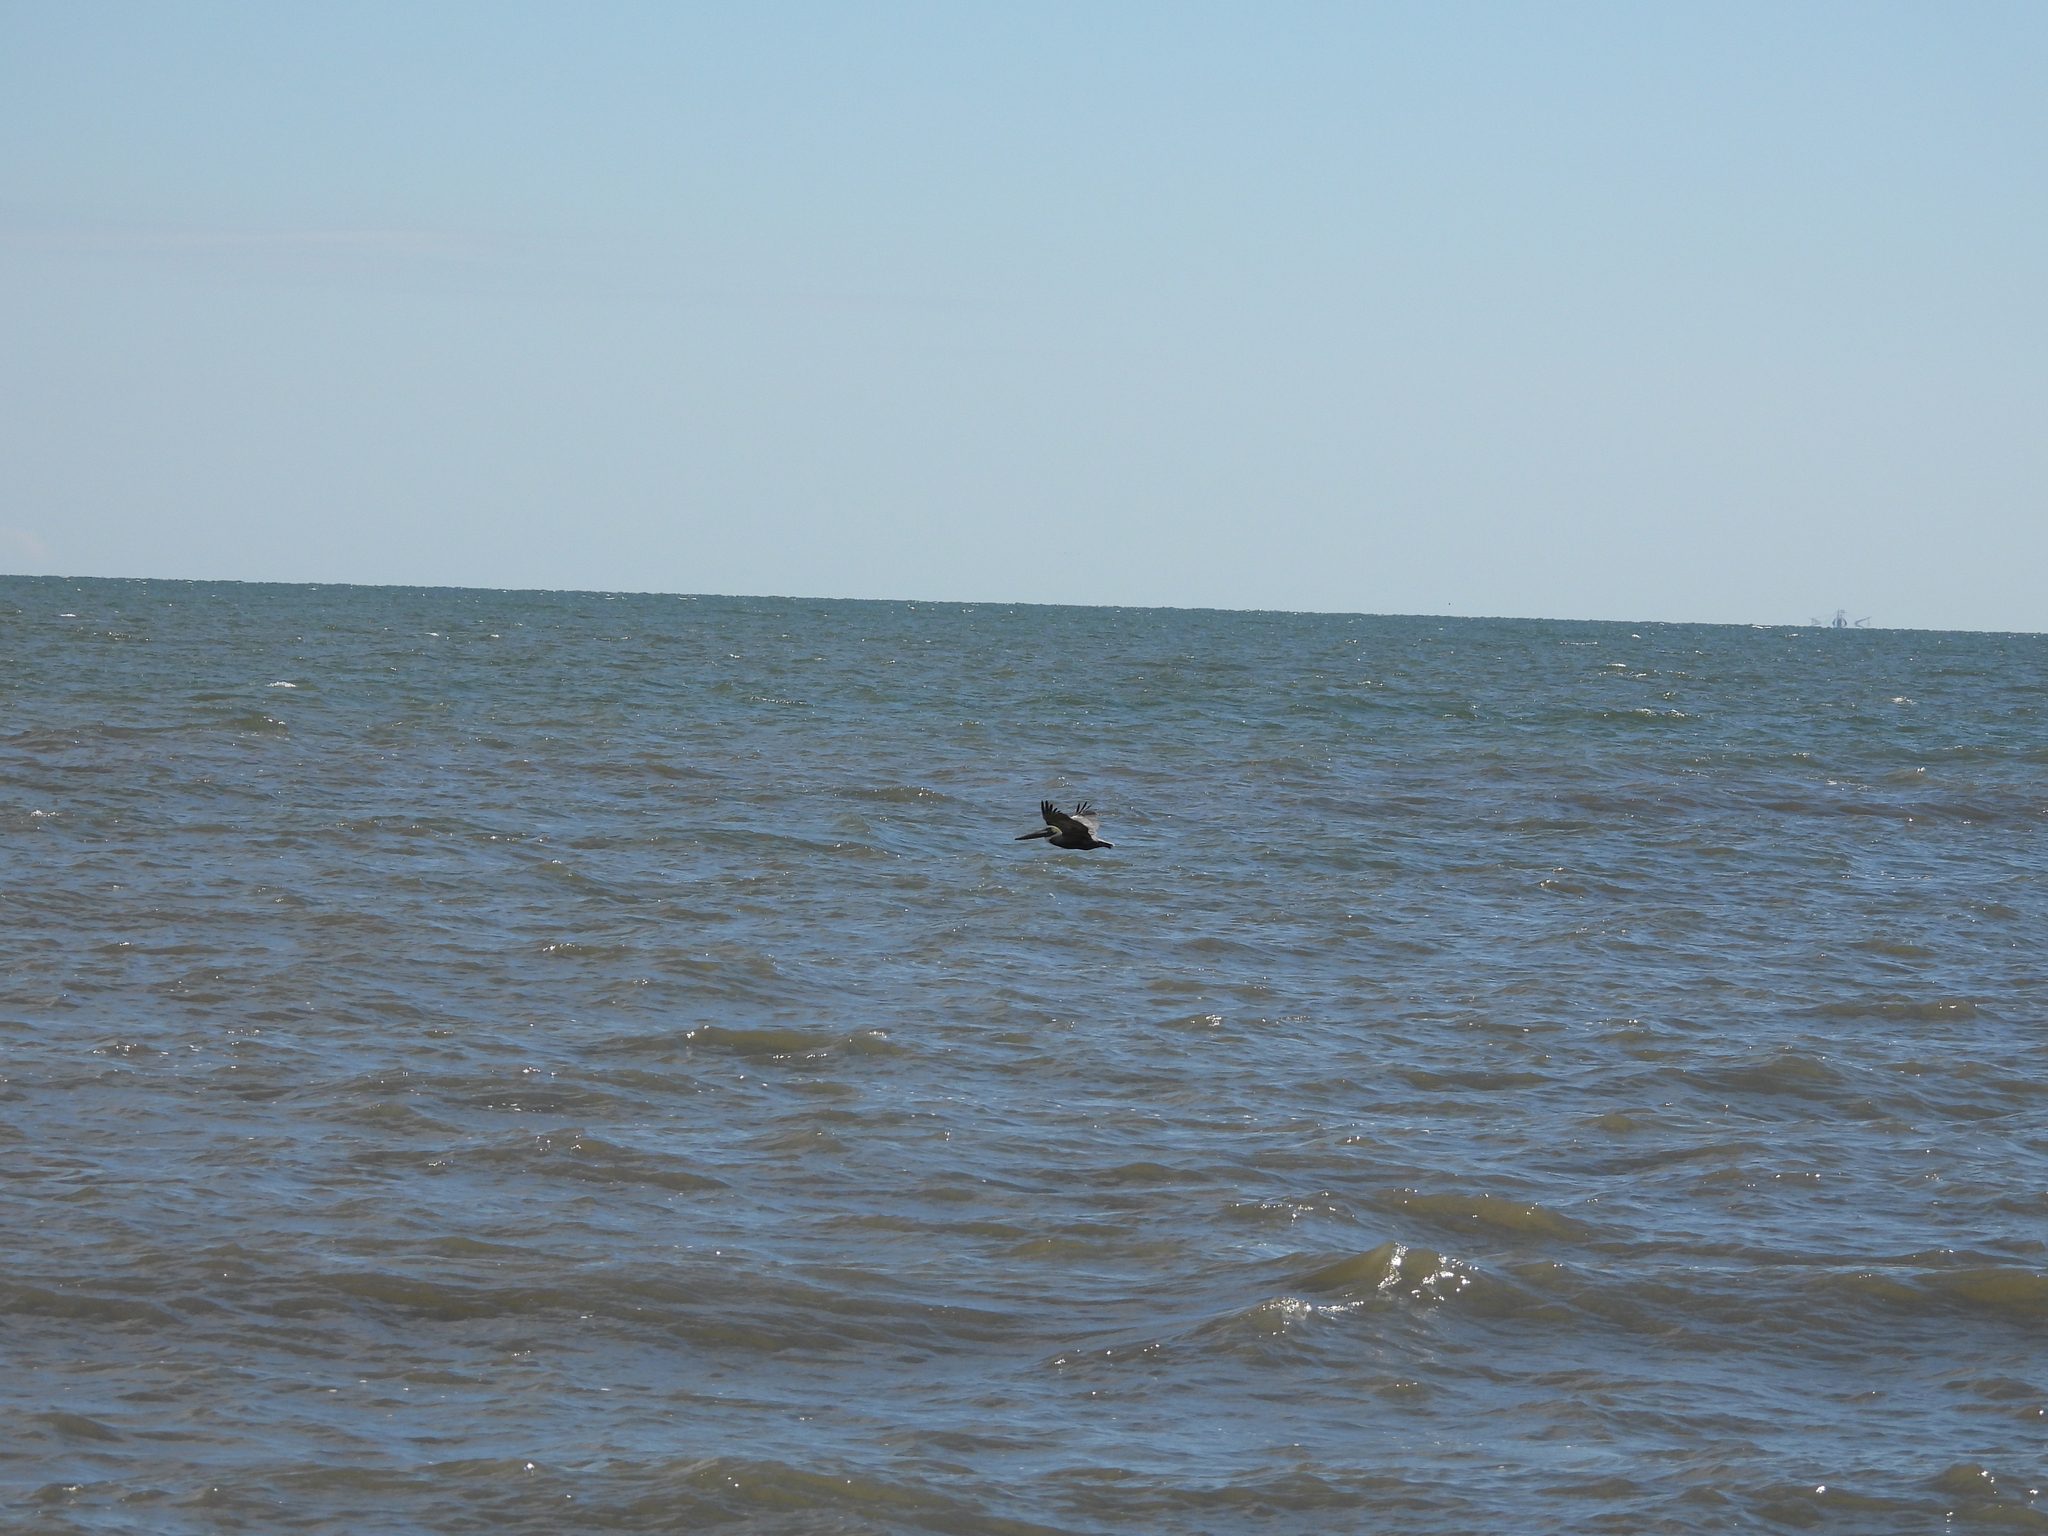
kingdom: Animalia
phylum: Chordata
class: Aves
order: Pelecaniformes
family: Pelecanidae
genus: Pelecanus
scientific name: Pelecanus occidentalis
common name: Brown pelican
